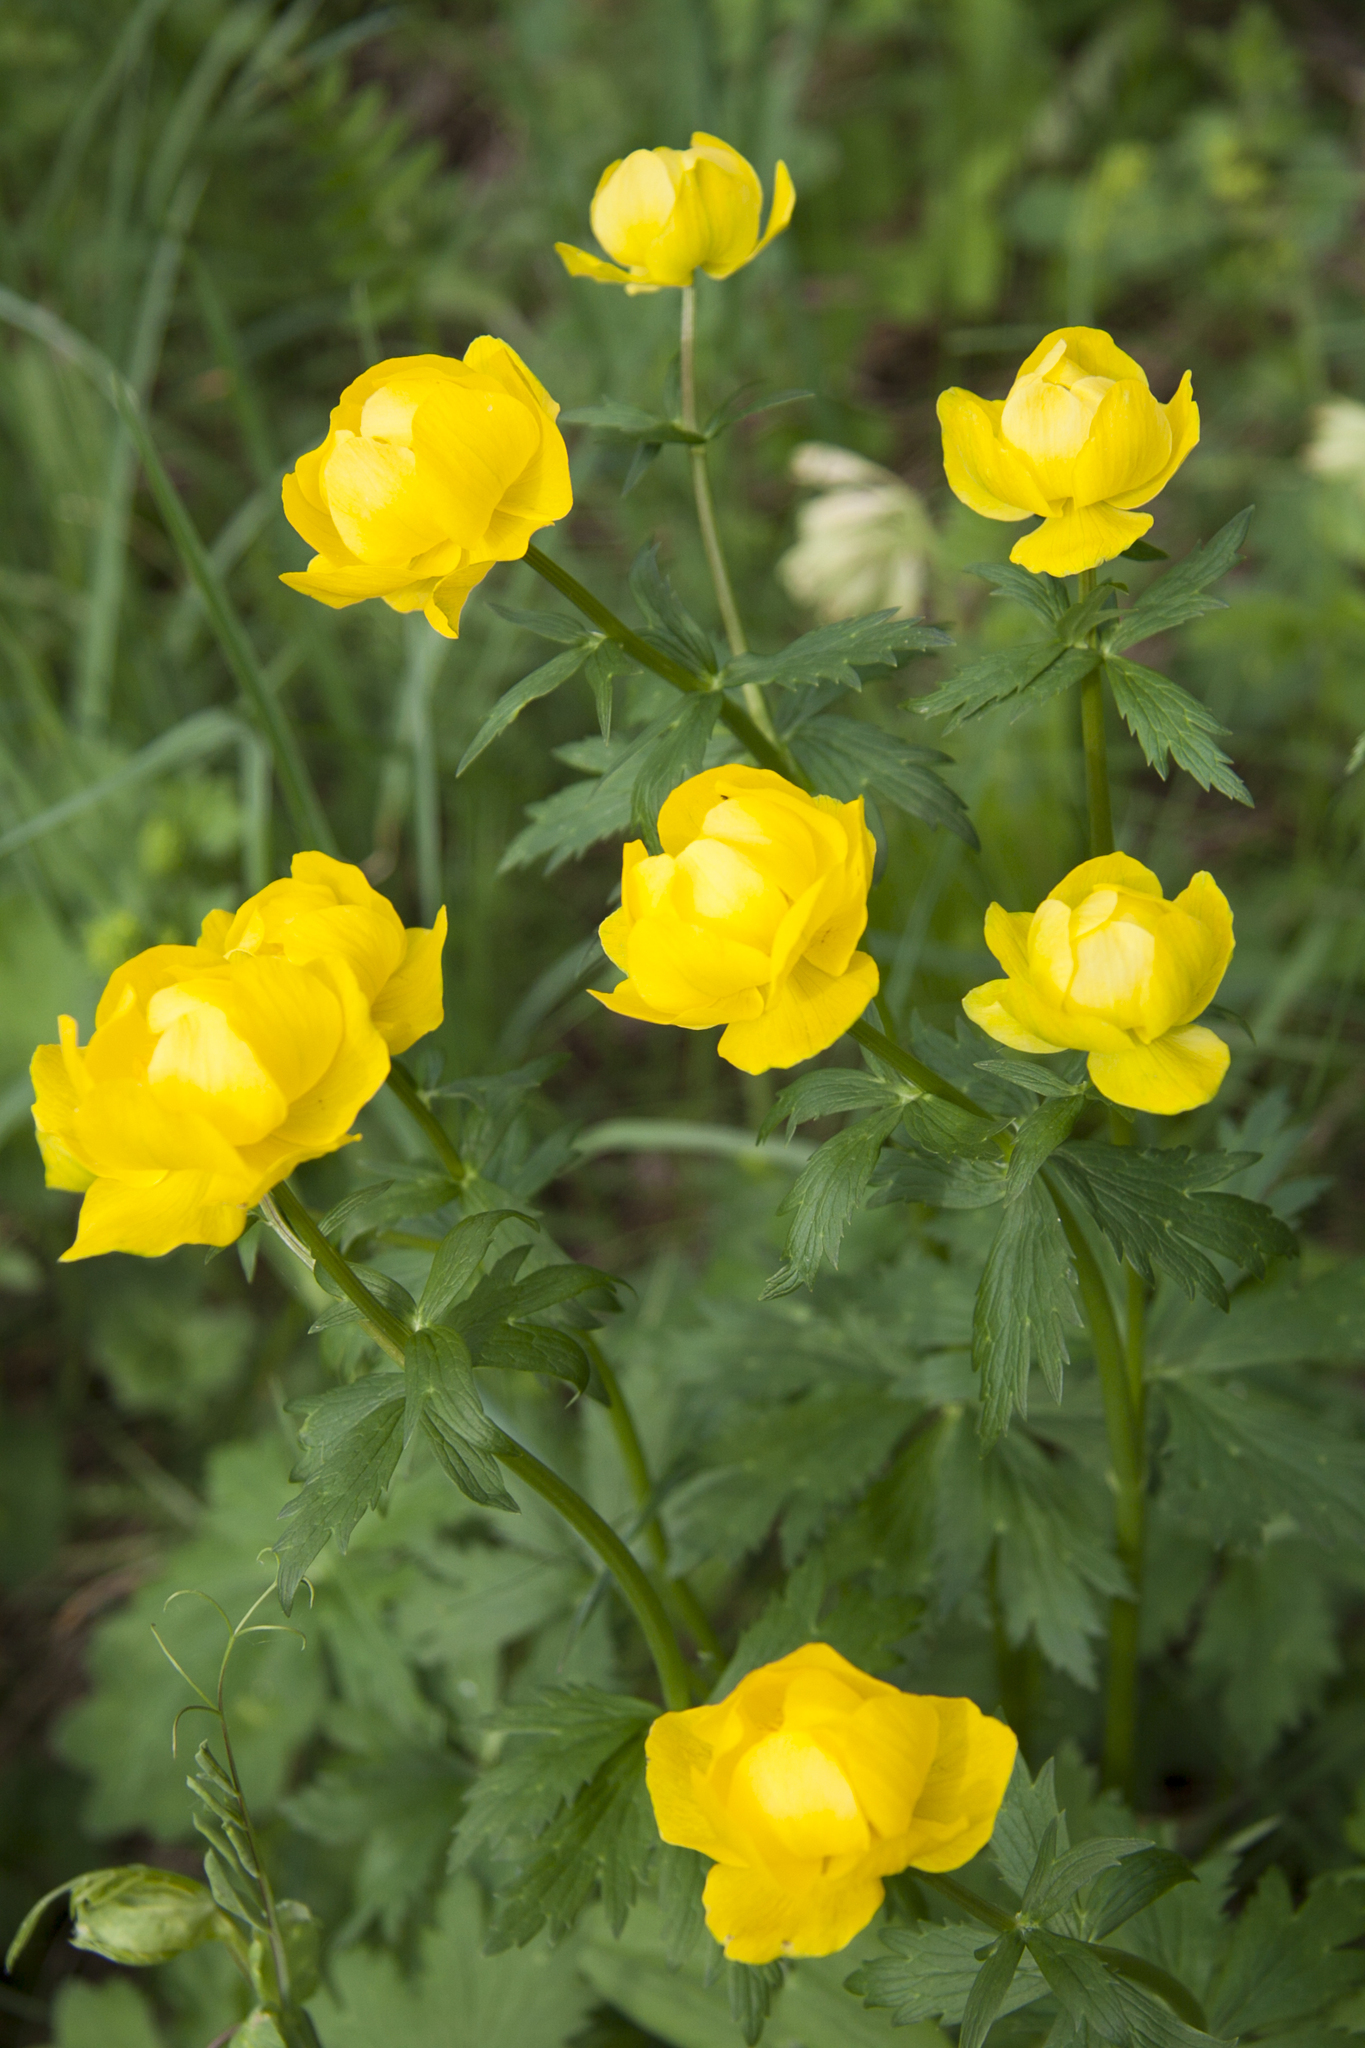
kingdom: Plantae
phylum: Tracheophyta
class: Magnoliopsida
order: Ranunculales
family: Ranunculaceae
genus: Trollius
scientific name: Trollius europaeus
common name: European globeflower
